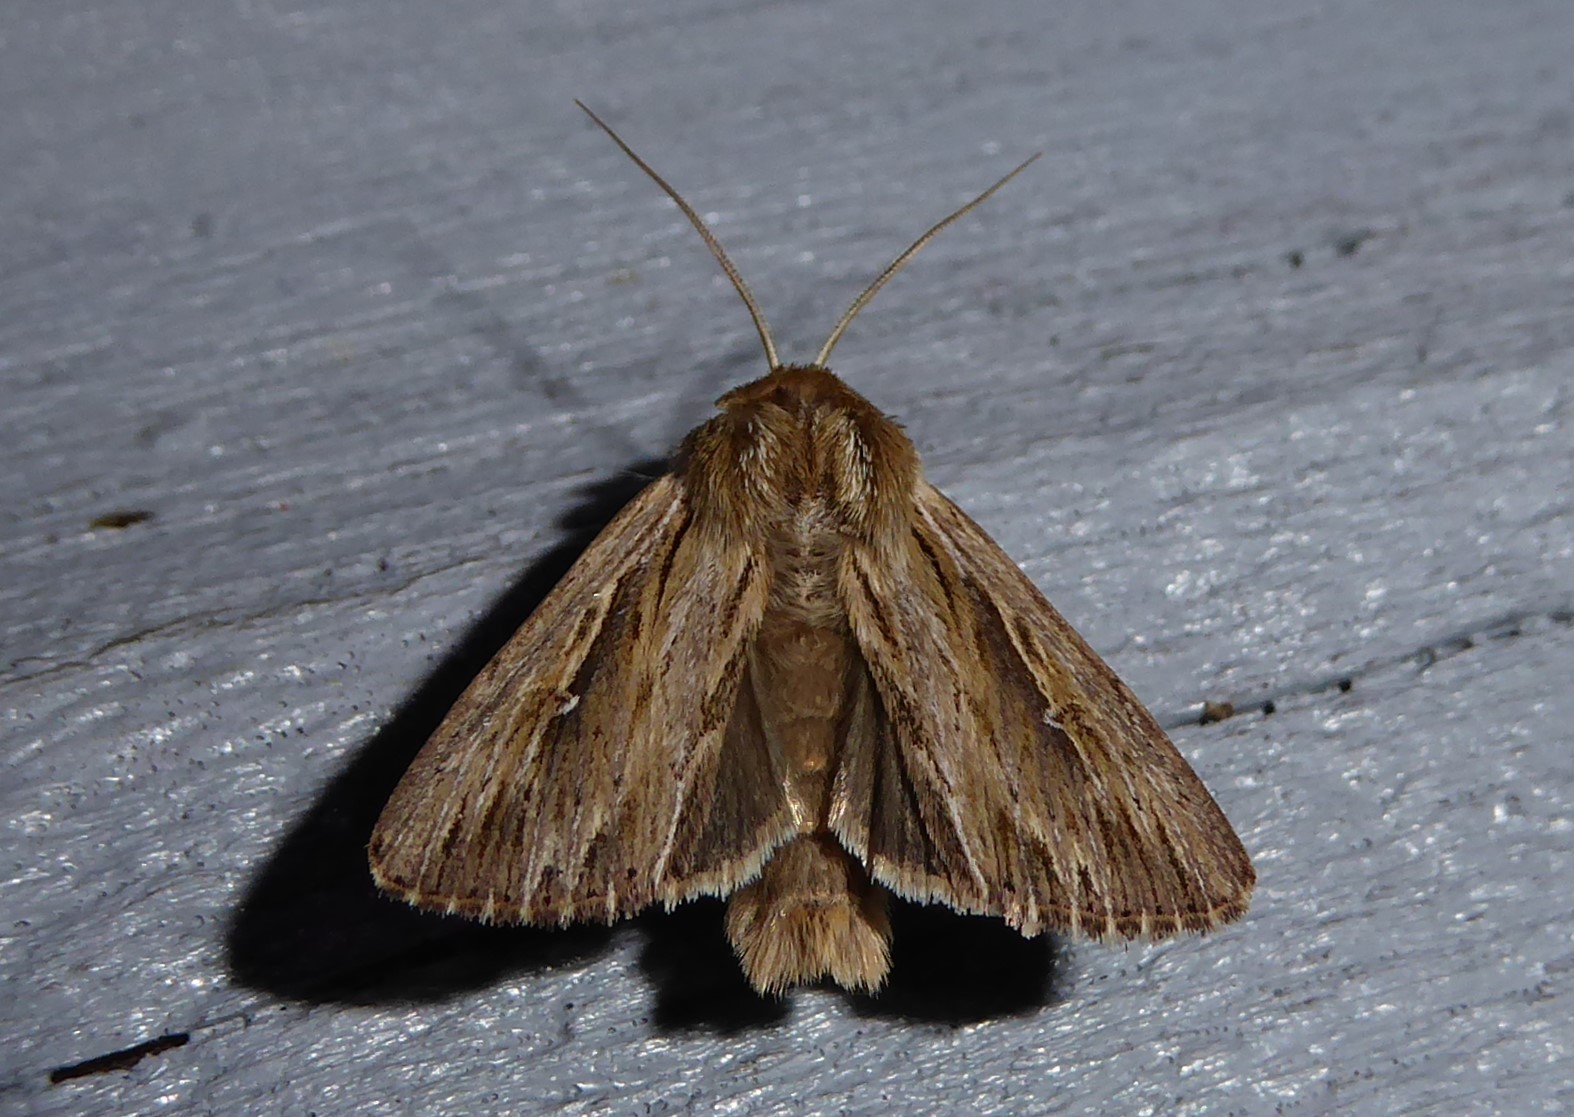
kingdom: Animalia
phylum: Arthropoda
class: Insecta
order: Lepidoptera
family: Noctuidae
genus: Persectania
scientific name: Persectania aversa
